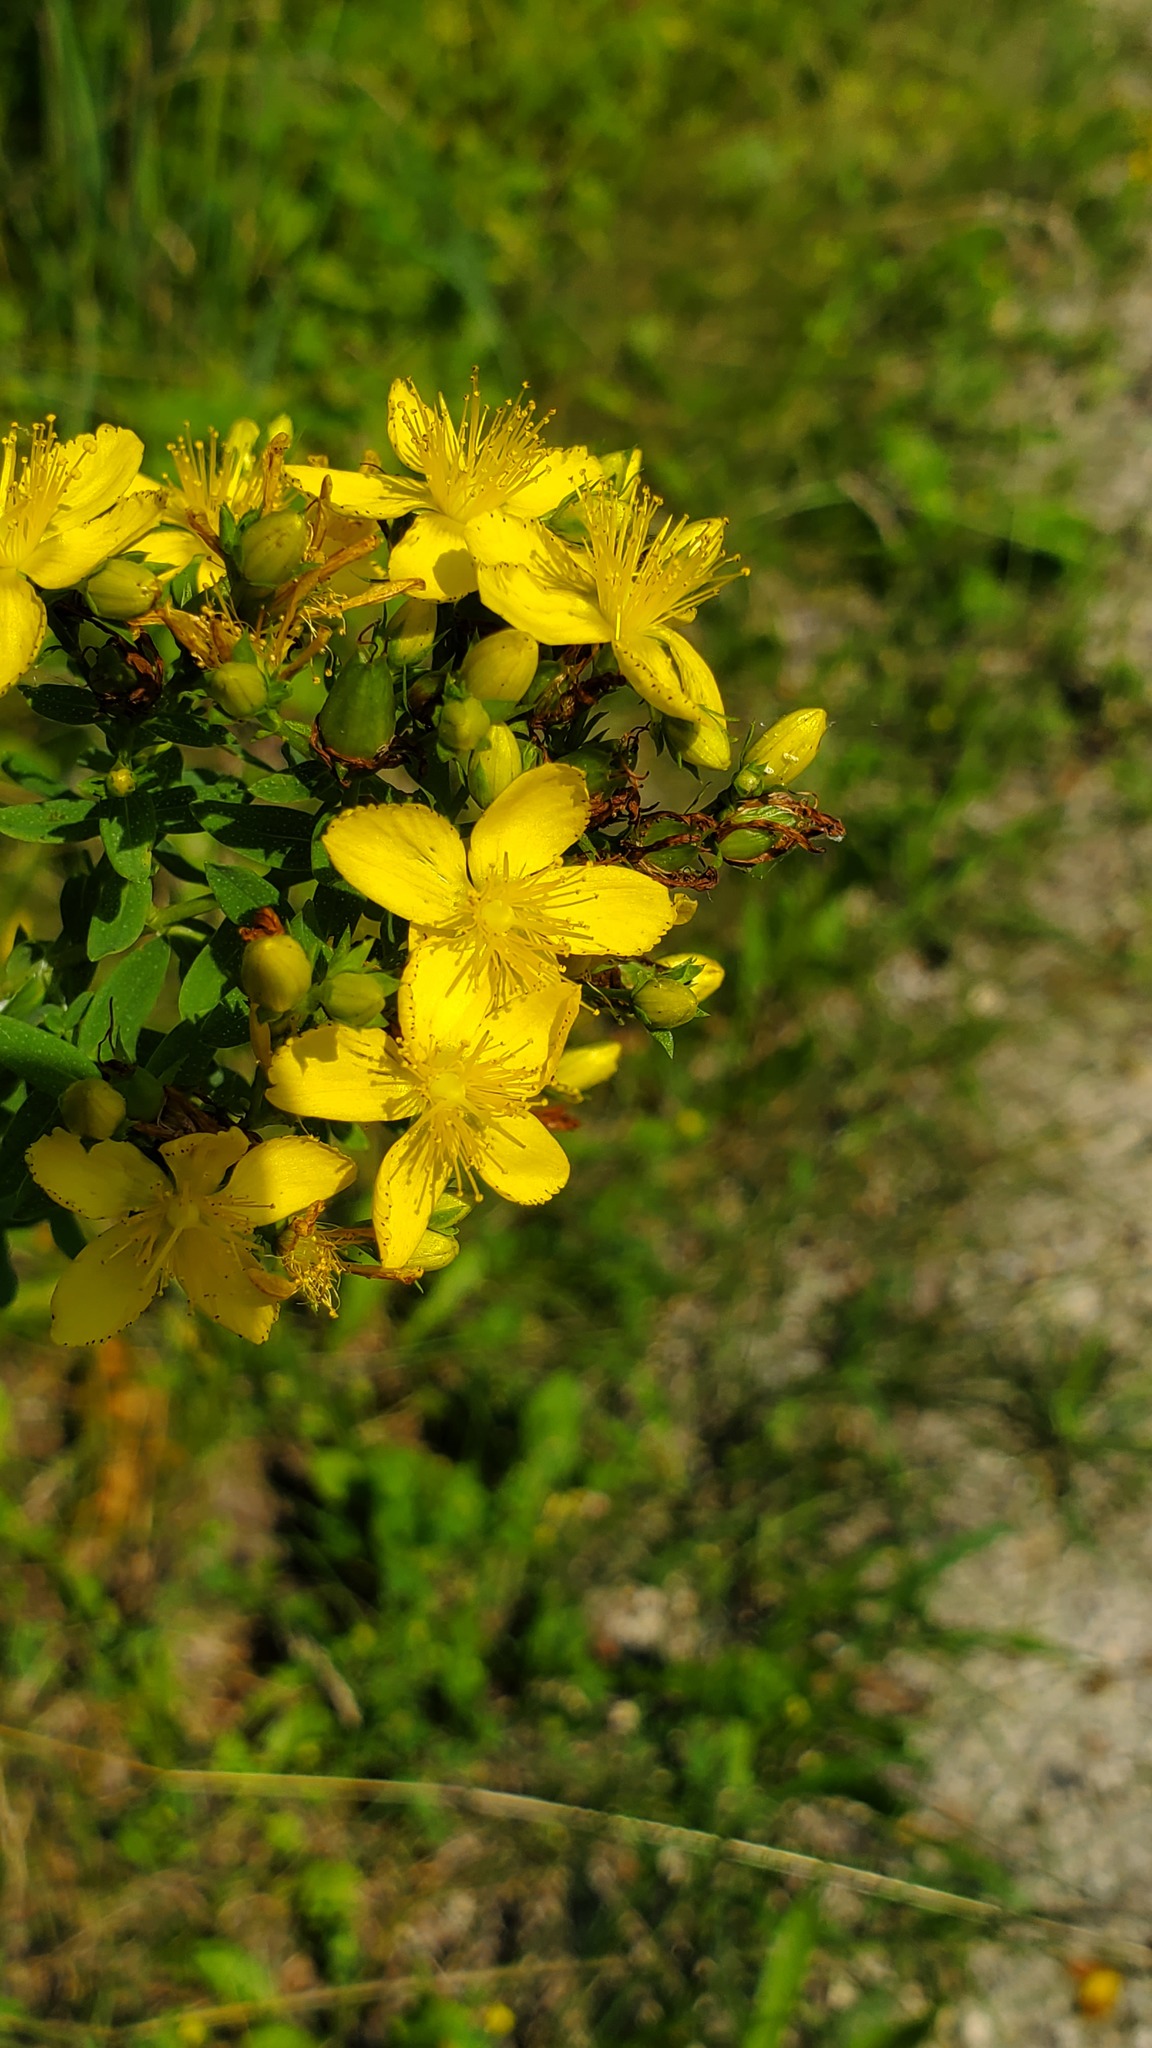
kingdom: Plantae
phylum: Tracheophyta
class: Magnoliopsida
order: Malpighiales
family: Hypericaceae
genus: Hypericum
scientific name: Hypericum perforatum
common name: Common st. johnswort
